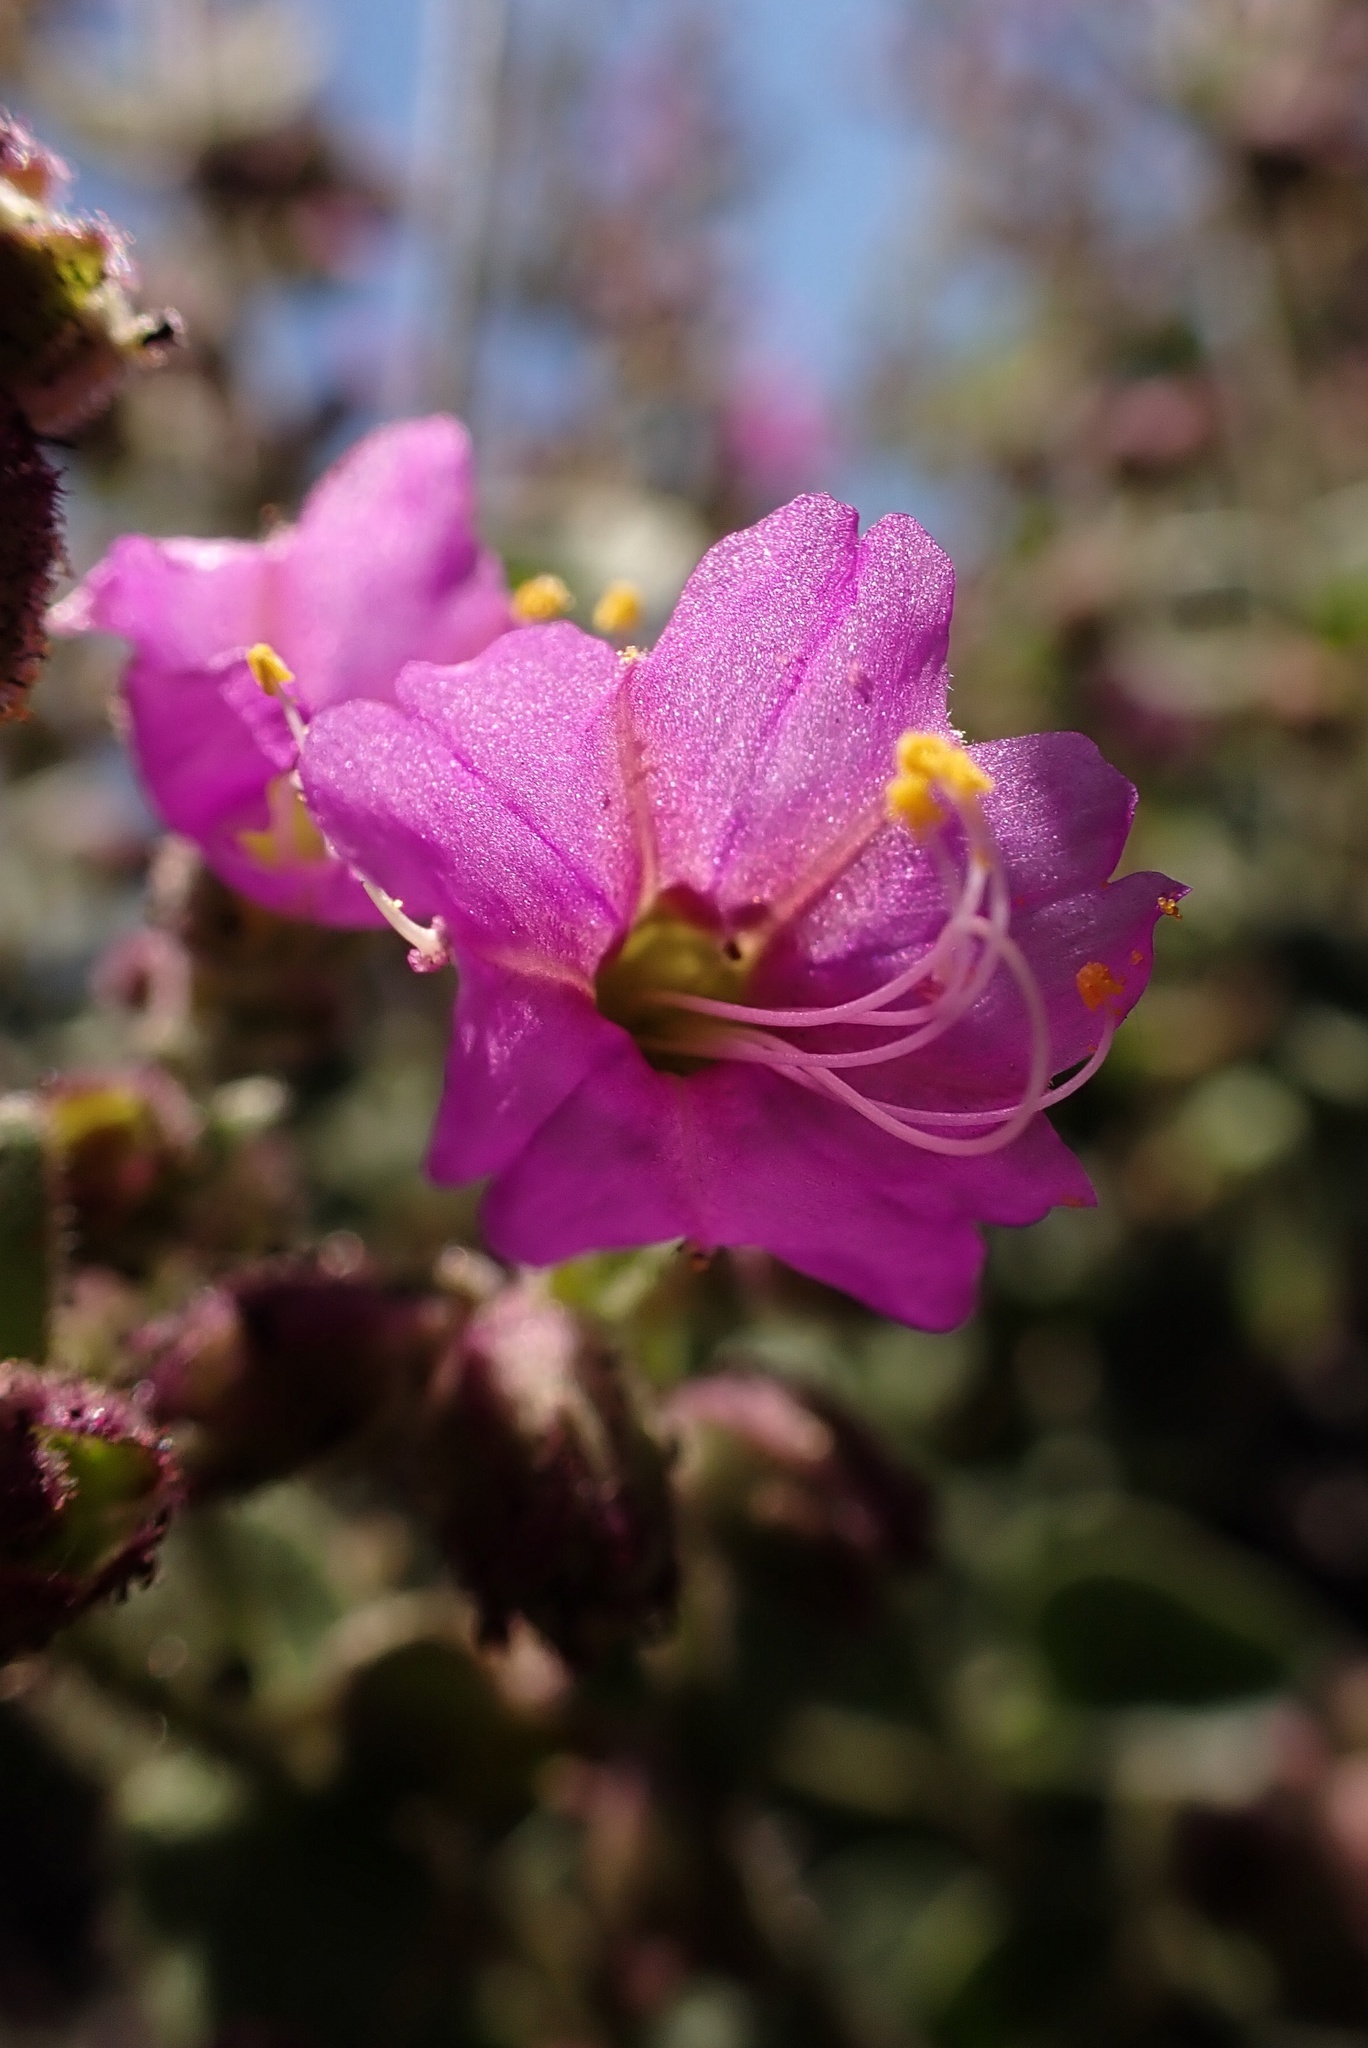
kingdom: Plantae
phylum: Tracheophyta
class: Magnoliopsida
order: Caryophyllales
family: Nyctaginaceae
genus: Mirabilis
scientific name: Mirabilis laevis
